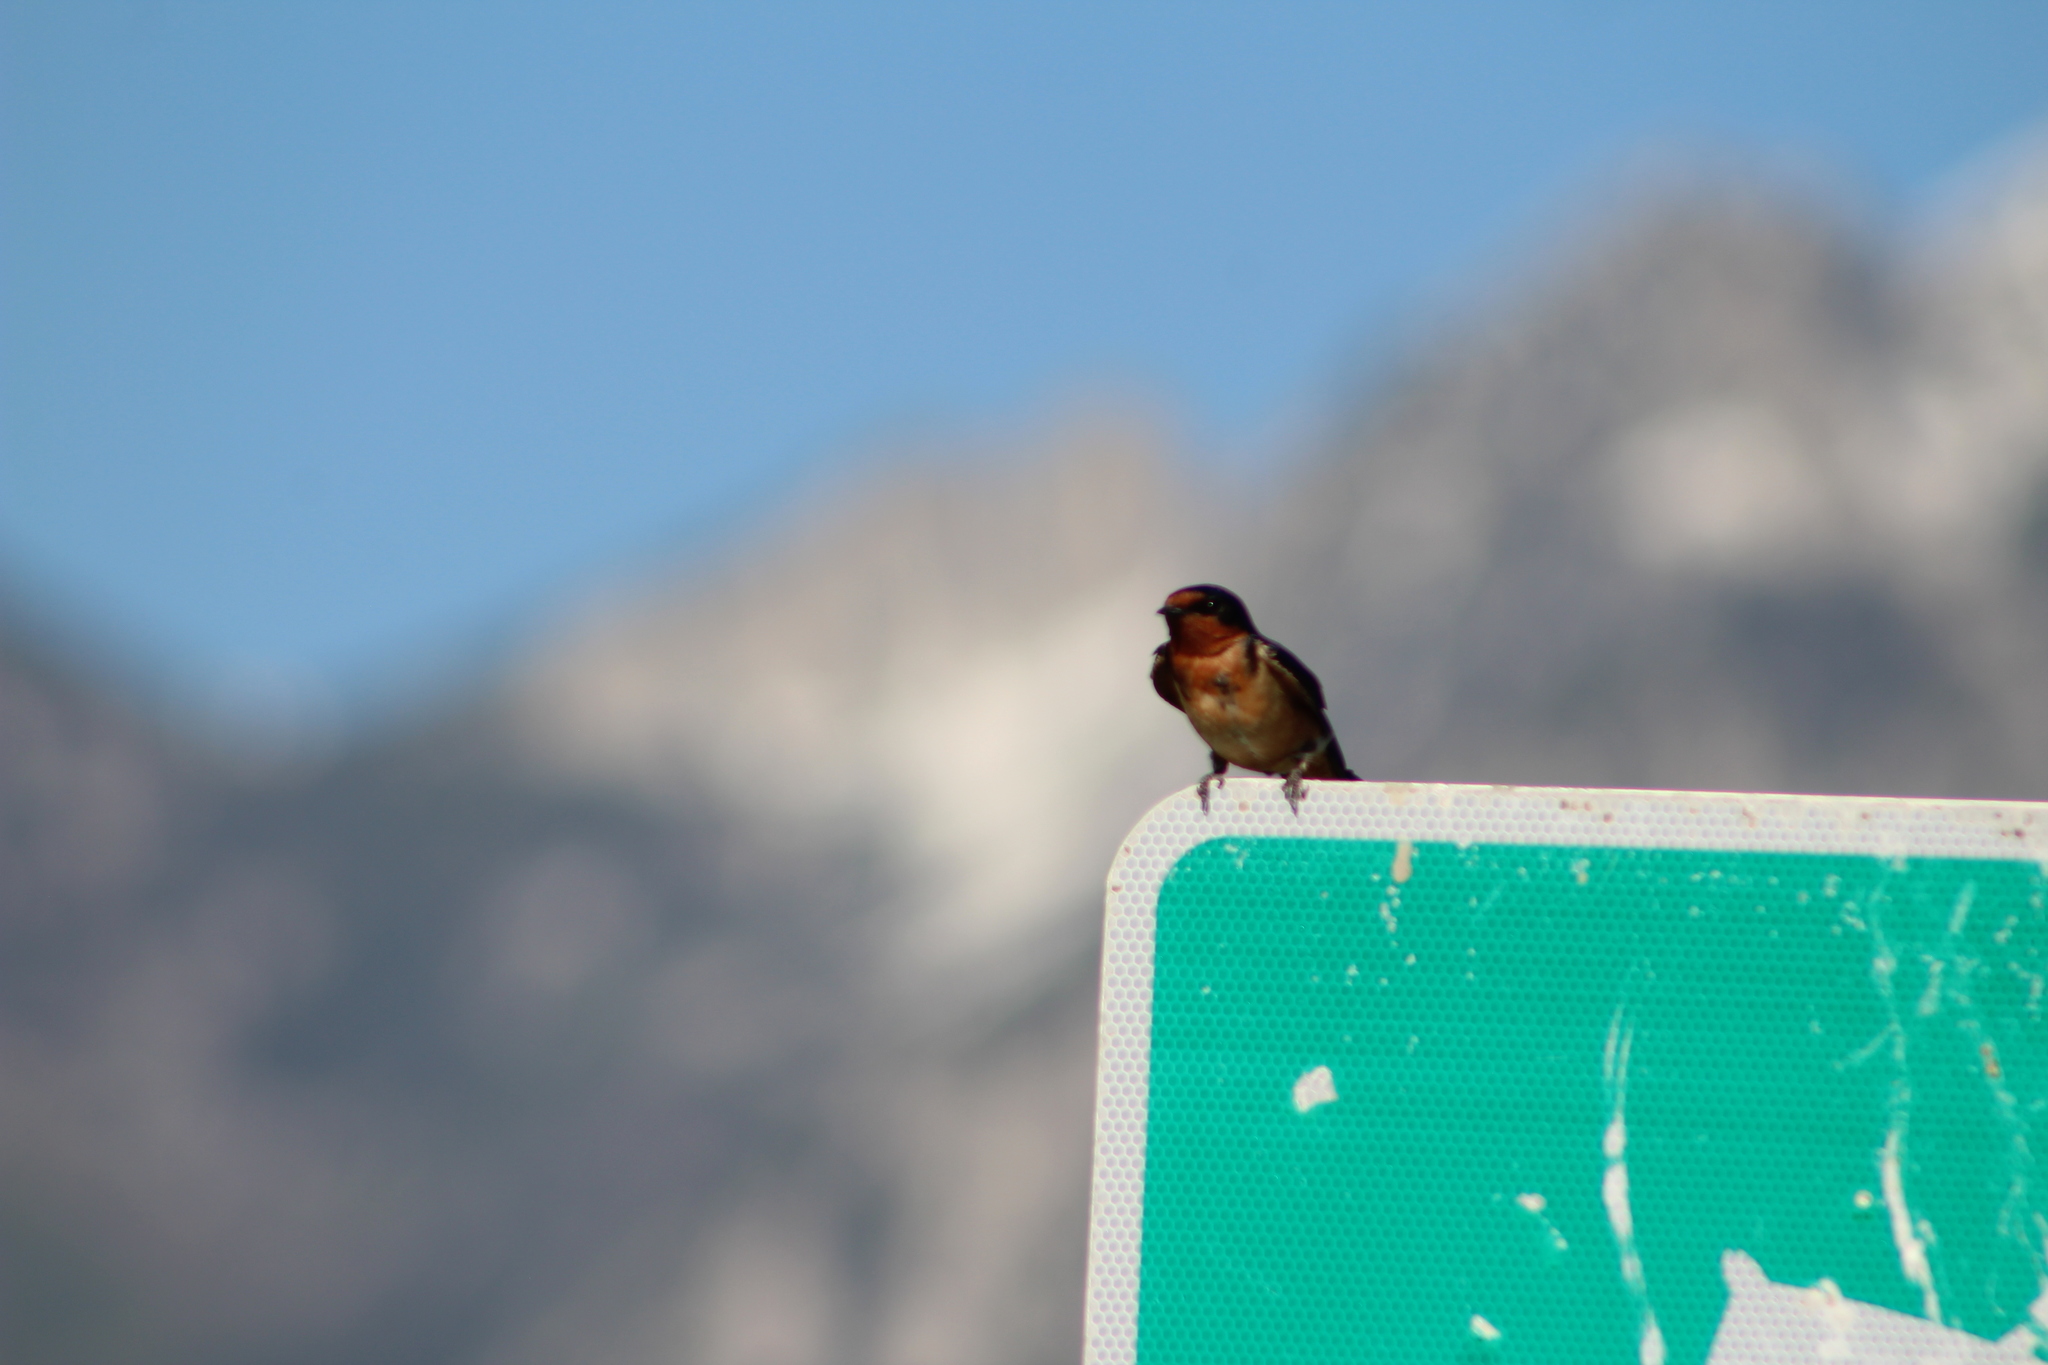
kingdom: Animalia
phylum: Chordata
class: Aves
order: Passeriformes
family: Hirundinidae
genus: Hirundo
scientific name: Hirundo rustica
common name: Barn swallow
